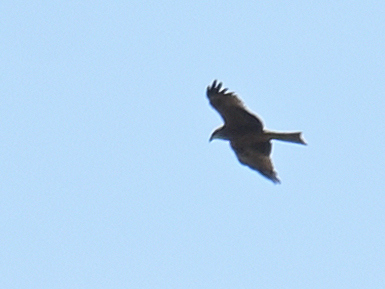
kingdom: Animalia
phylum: Chordata
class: Aves
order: Accipitriformes
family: Accipitridae
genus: Milvus
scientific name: Milvus migrans
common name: Black kite
